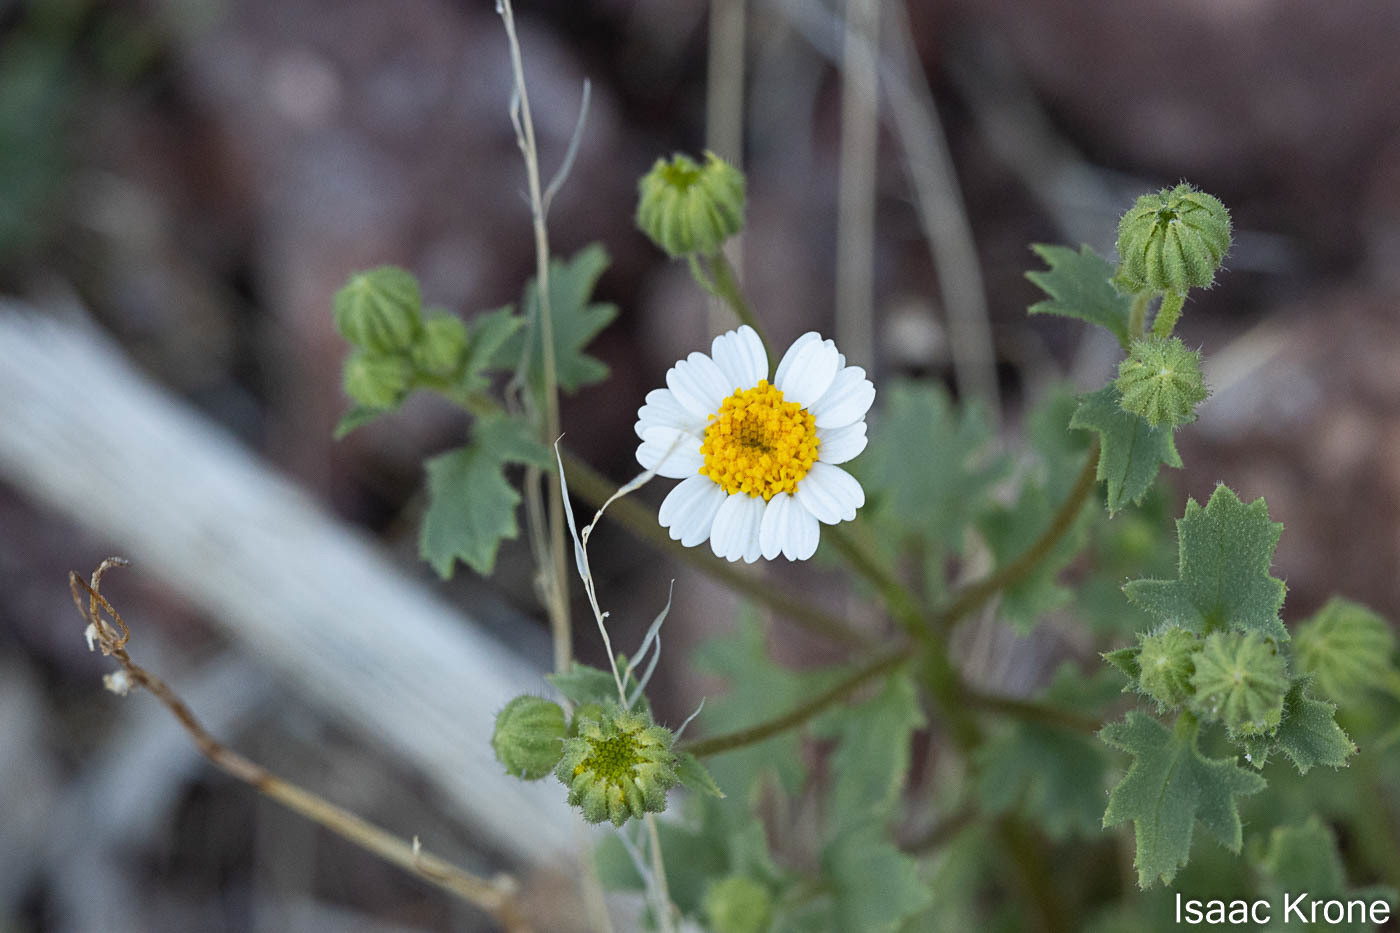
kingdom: Plantae
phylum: Tracheophyta
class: Magnoliopsida
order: Asterales
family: Asteraceae
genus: Laphamia
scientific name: Laphamia emoryi
